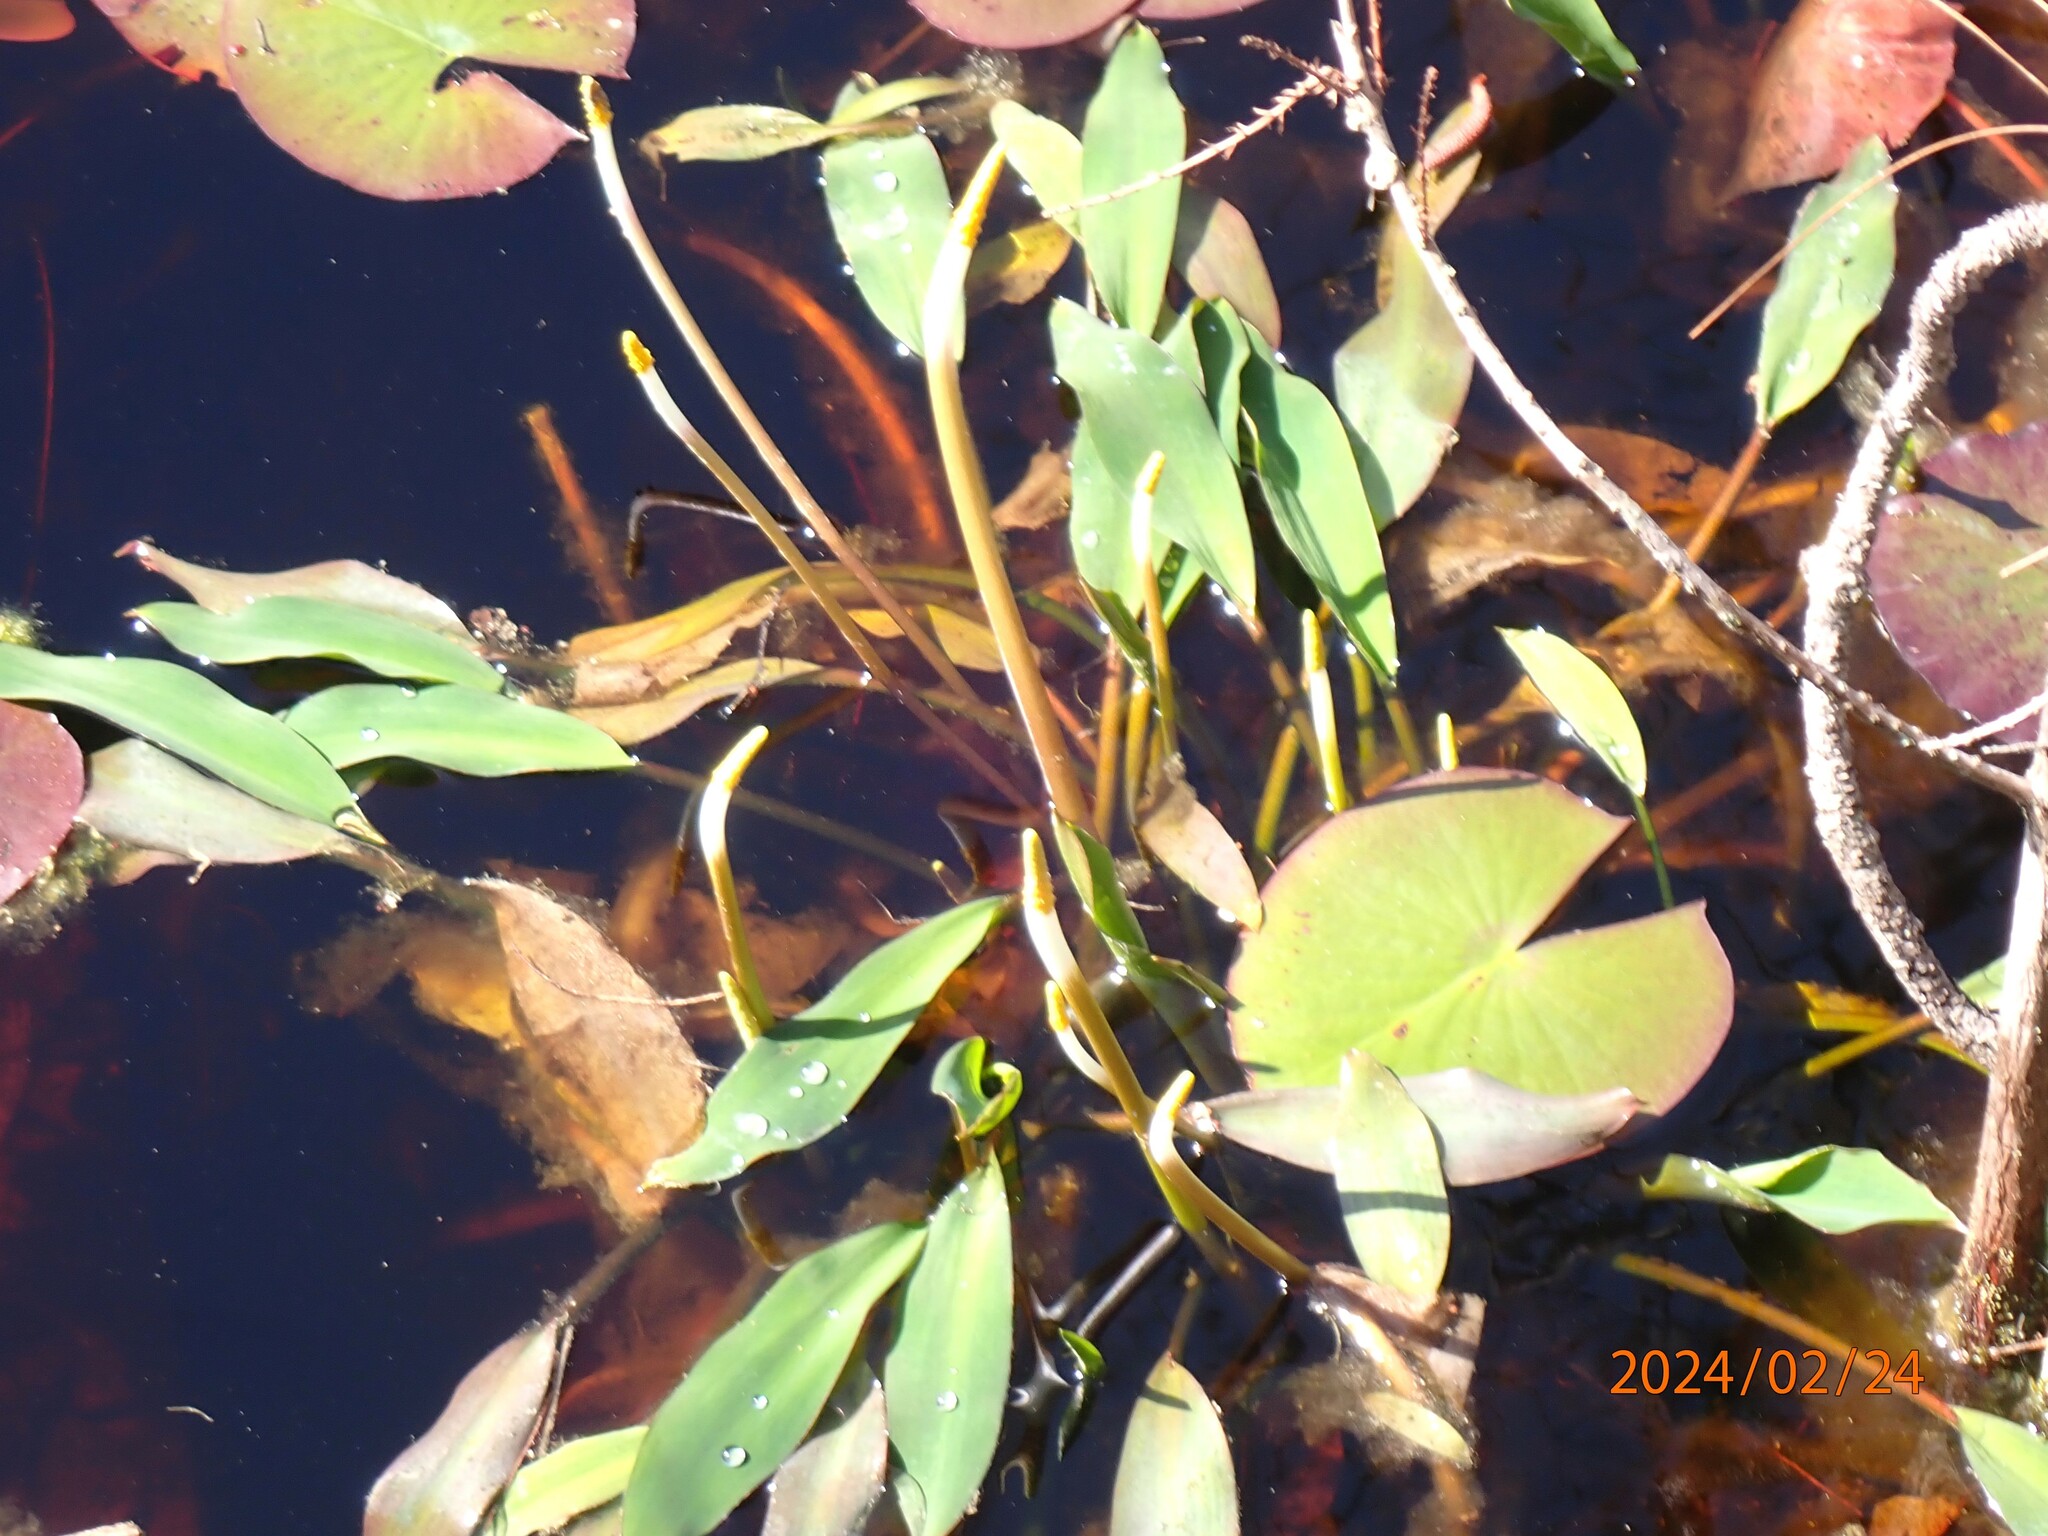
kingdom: Plantae
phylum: Tracheophyta
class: Liliopsida
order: Alismatales
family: Araceae
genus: Orontium
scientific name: Orontium aquaticum
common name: Golden-club
